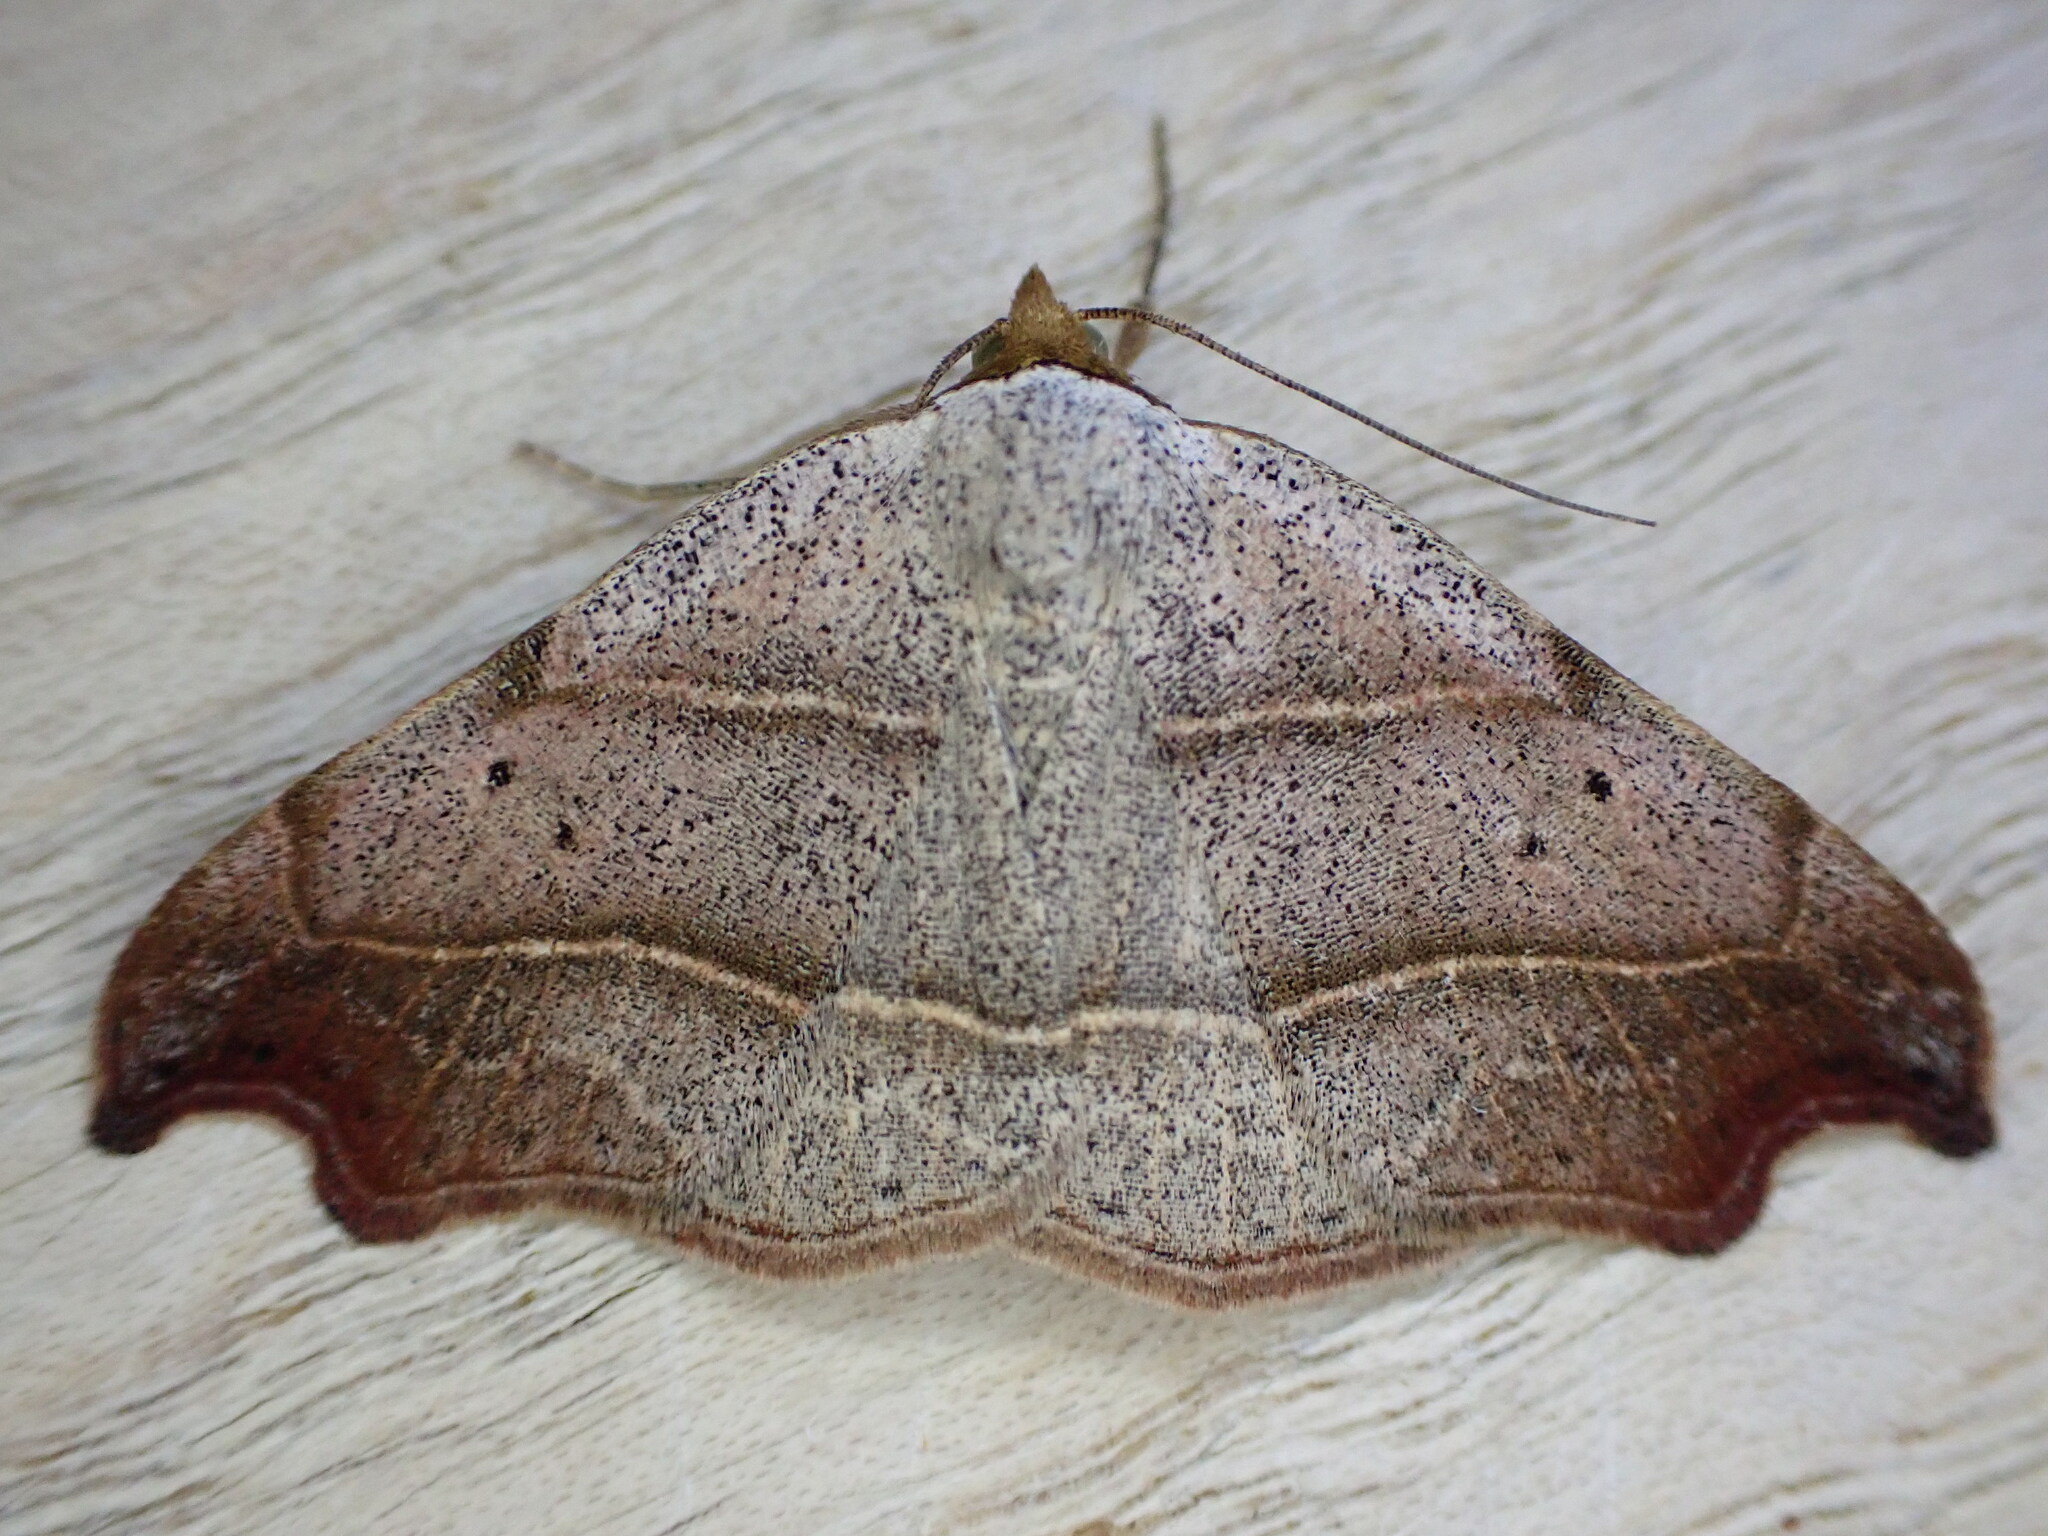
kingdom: Animalia
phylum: Arthropoda
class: Insecta
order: Lepidoptera
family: Erebidae
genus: Laspeyria
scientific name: Laspeyria flexula
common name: Beautiful hook-tip
